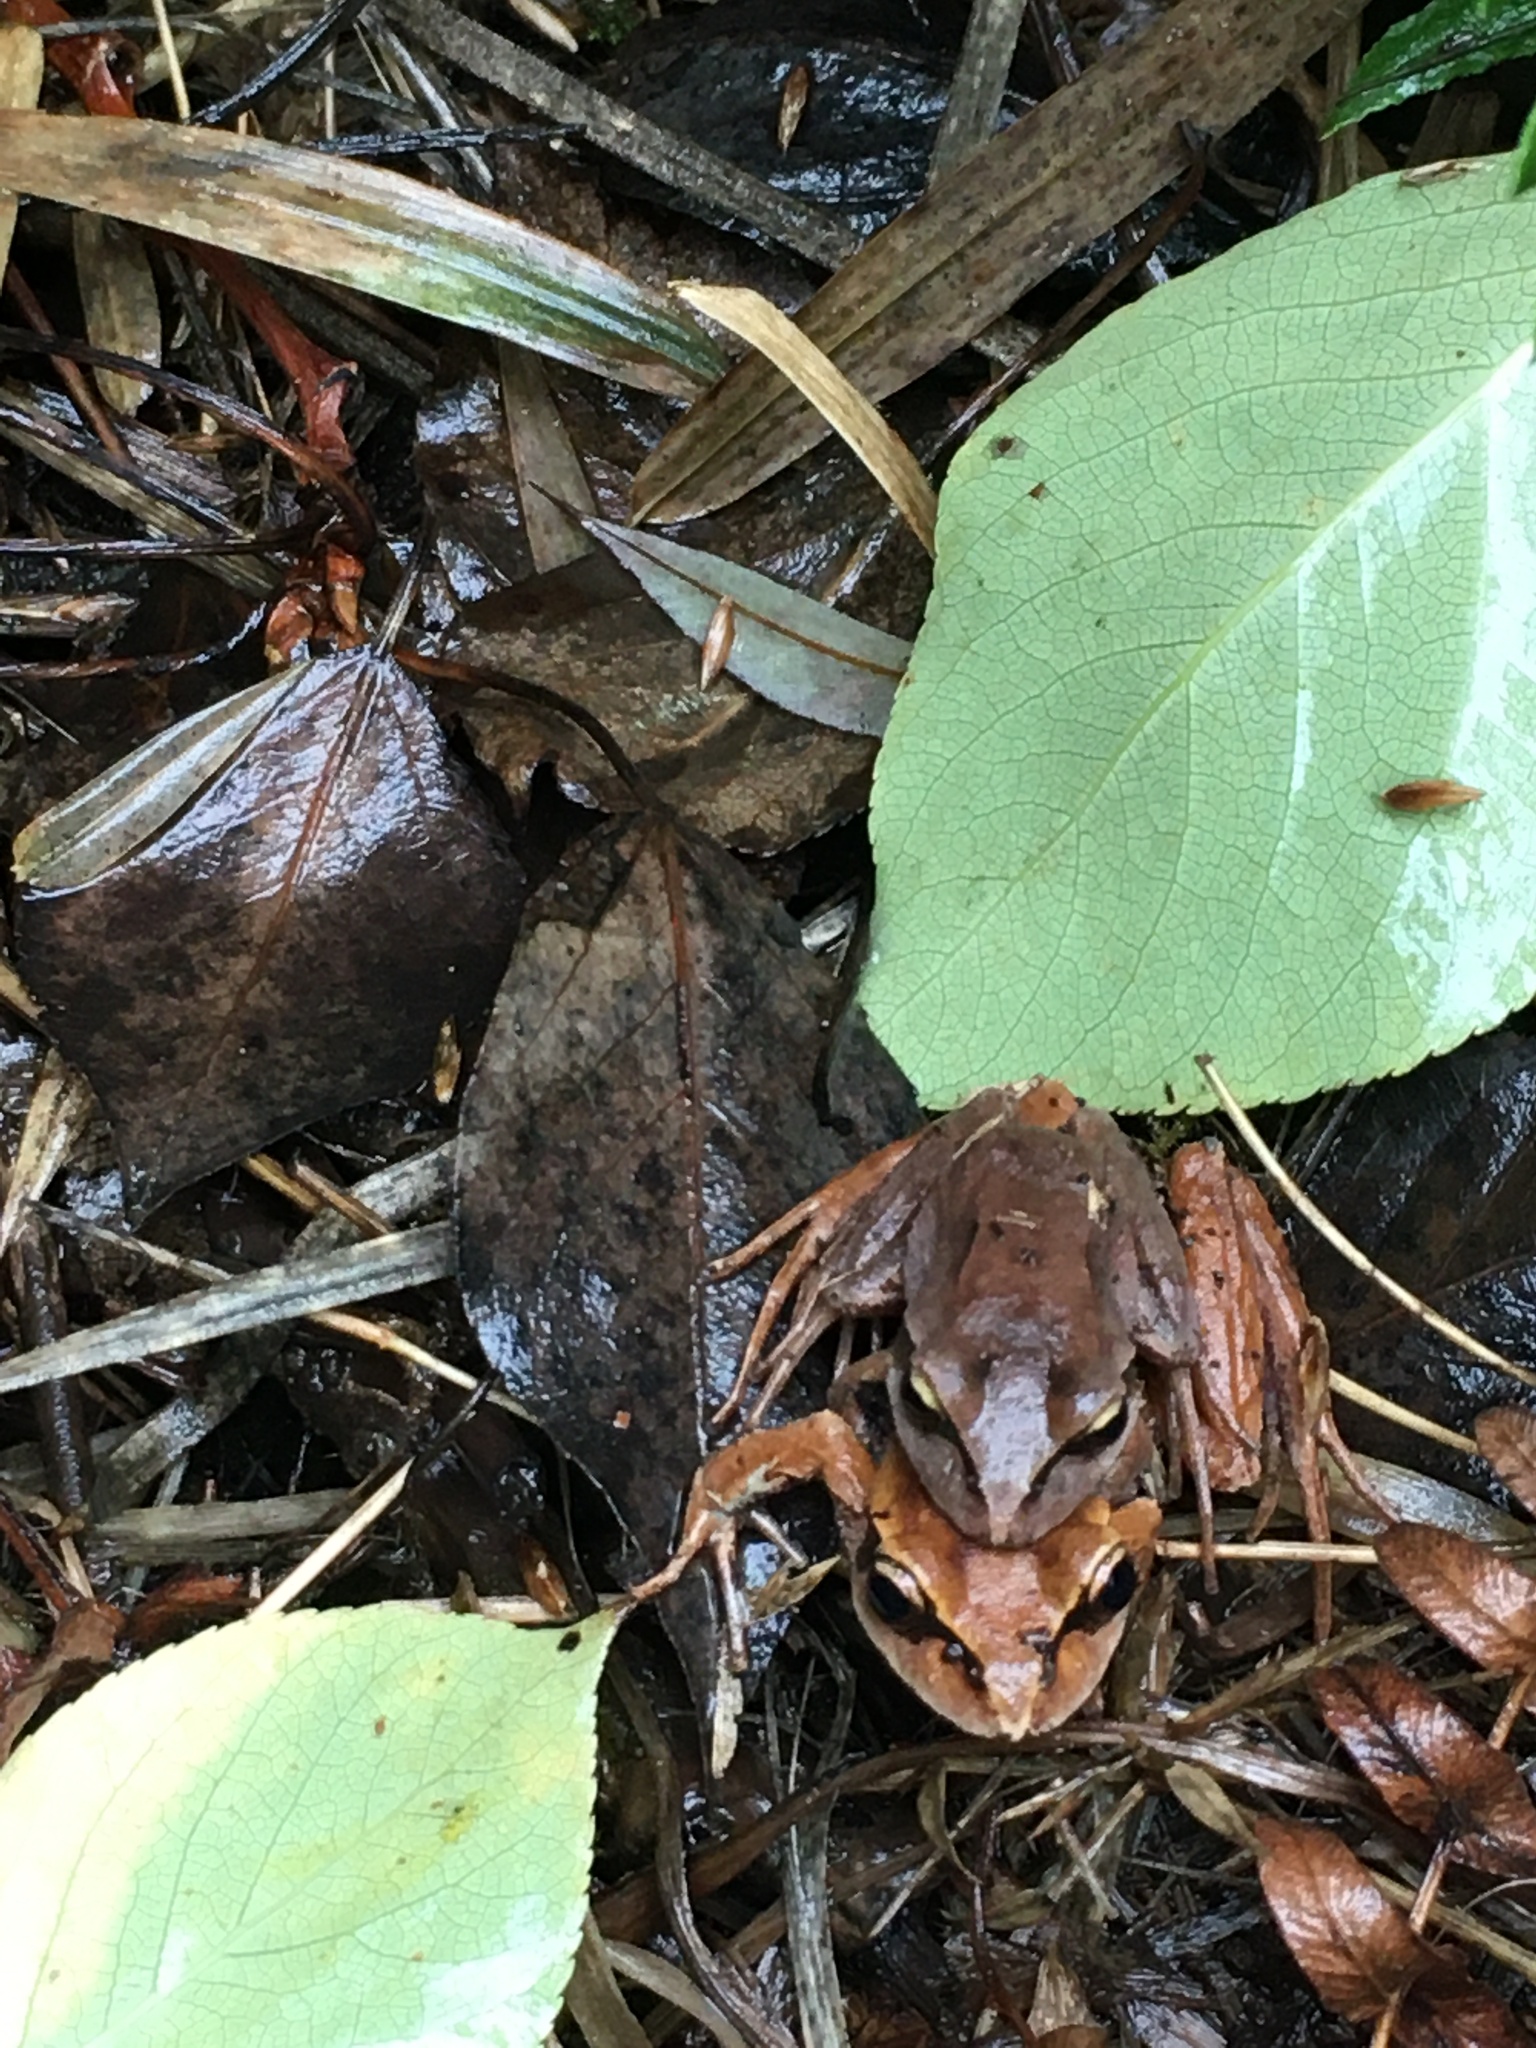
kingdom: Animalia
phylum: Chordata
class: Amphibia
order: Anura
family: Batrachylidae
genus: Batrachyla
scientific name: Batrachyla taeniata
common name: Banded wood frog
